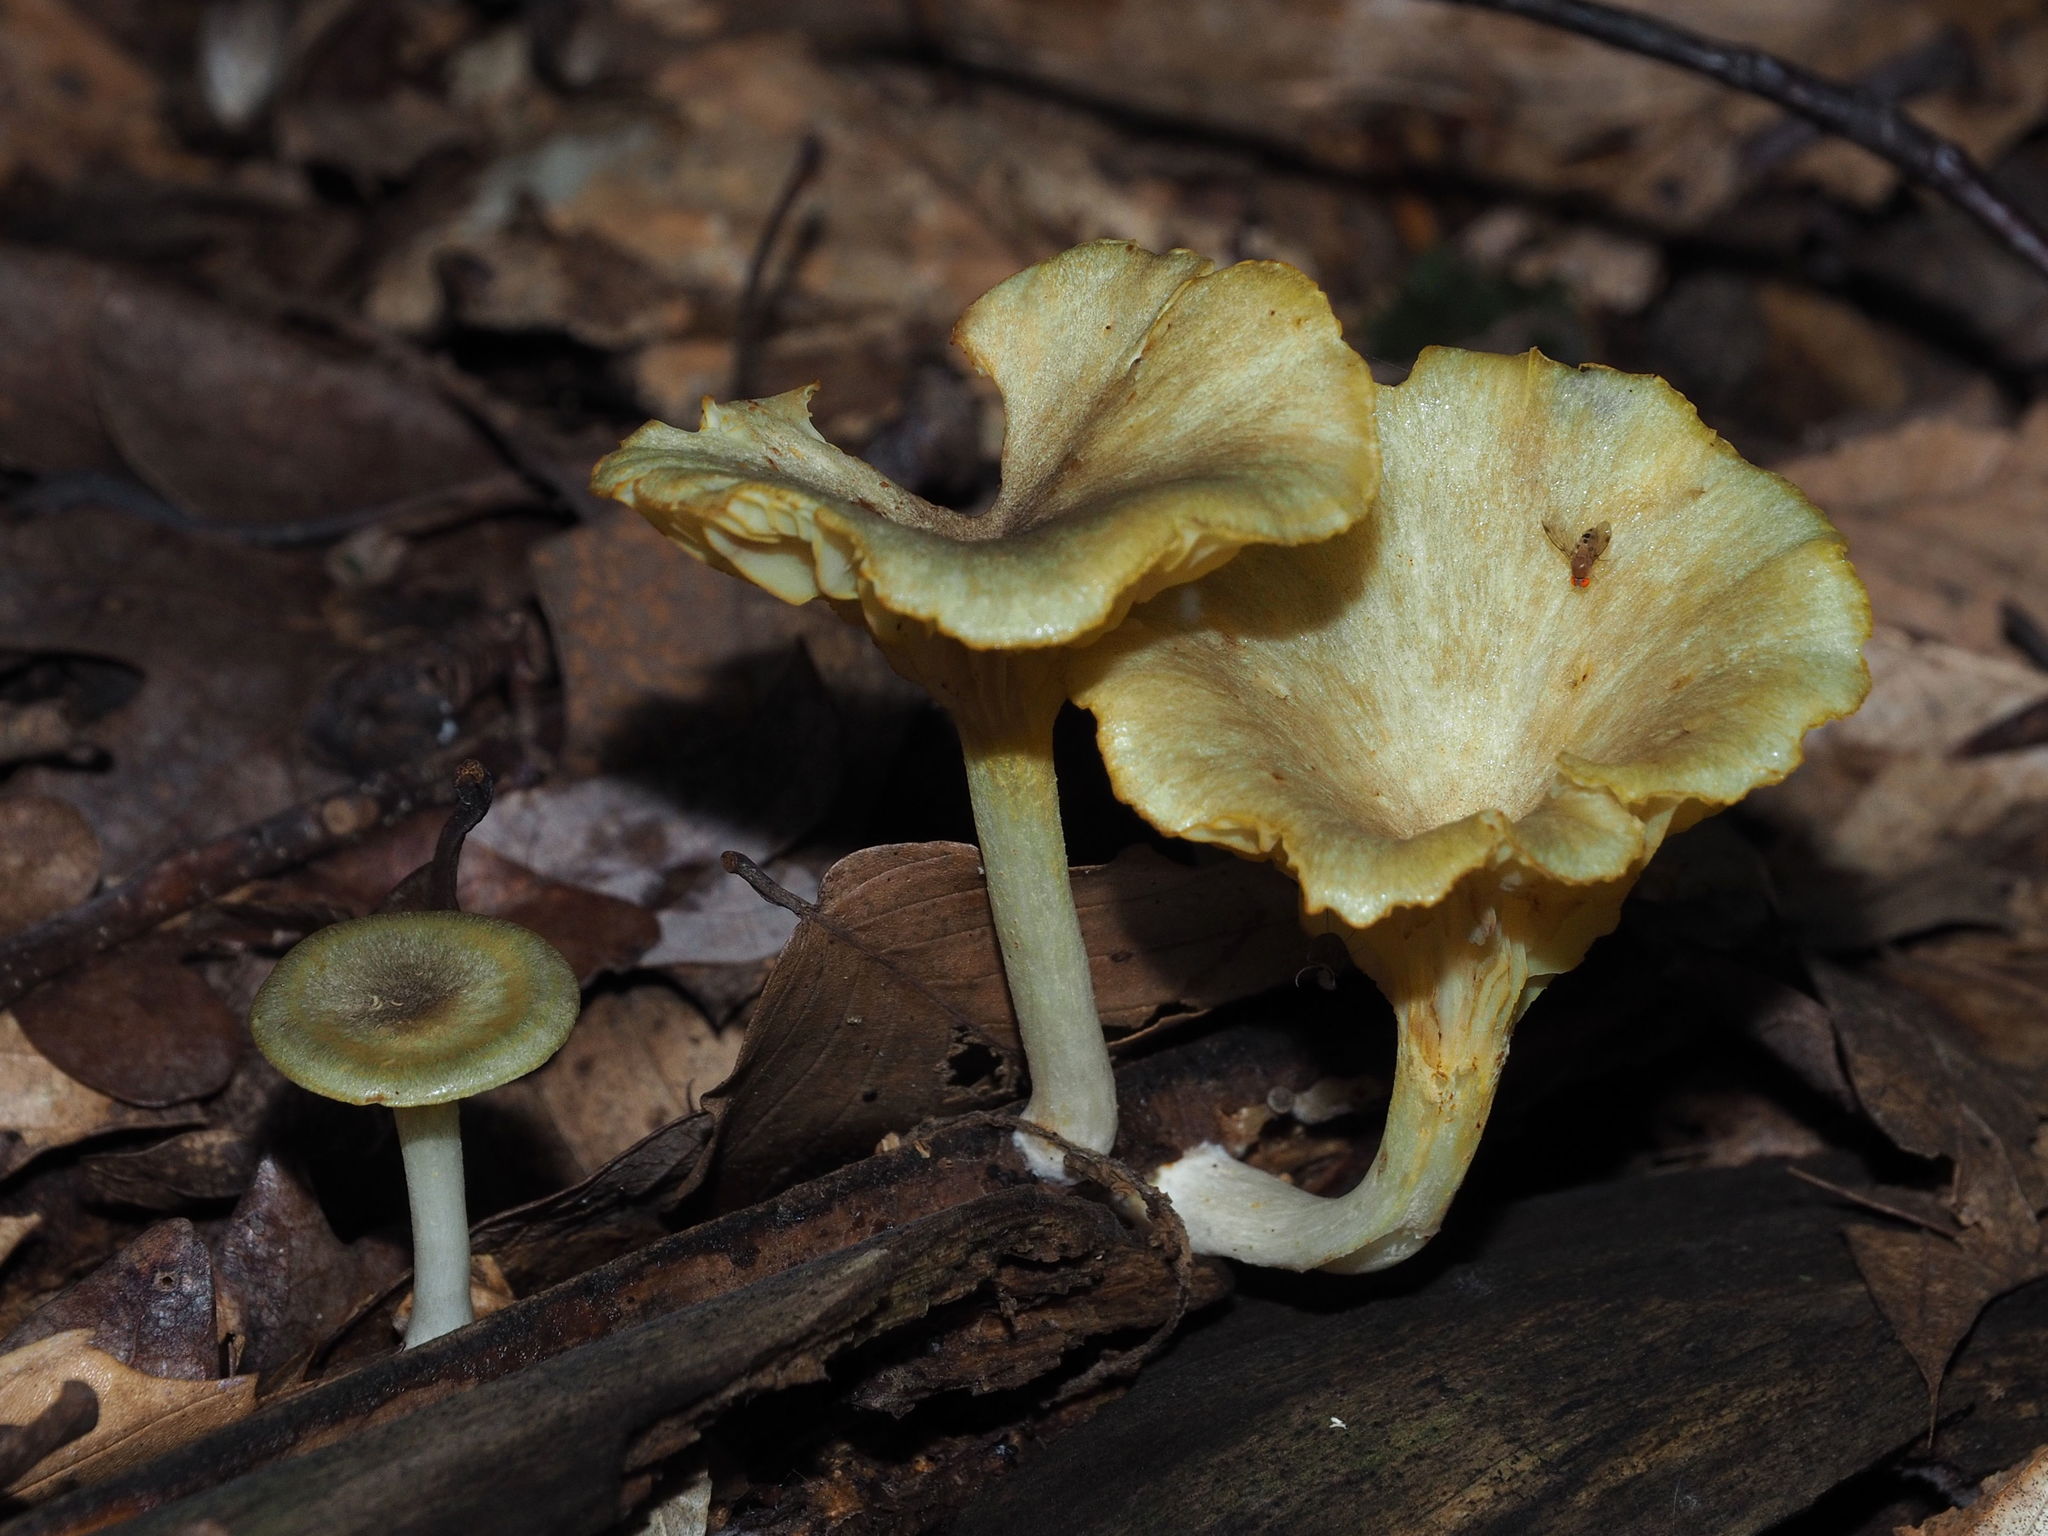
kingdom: Fungi
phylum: Basidiomycota
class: Agaricomycetes
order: Agaricales
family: Marasmiaceae
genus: Gerronema
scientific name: Gerronema strombodes
